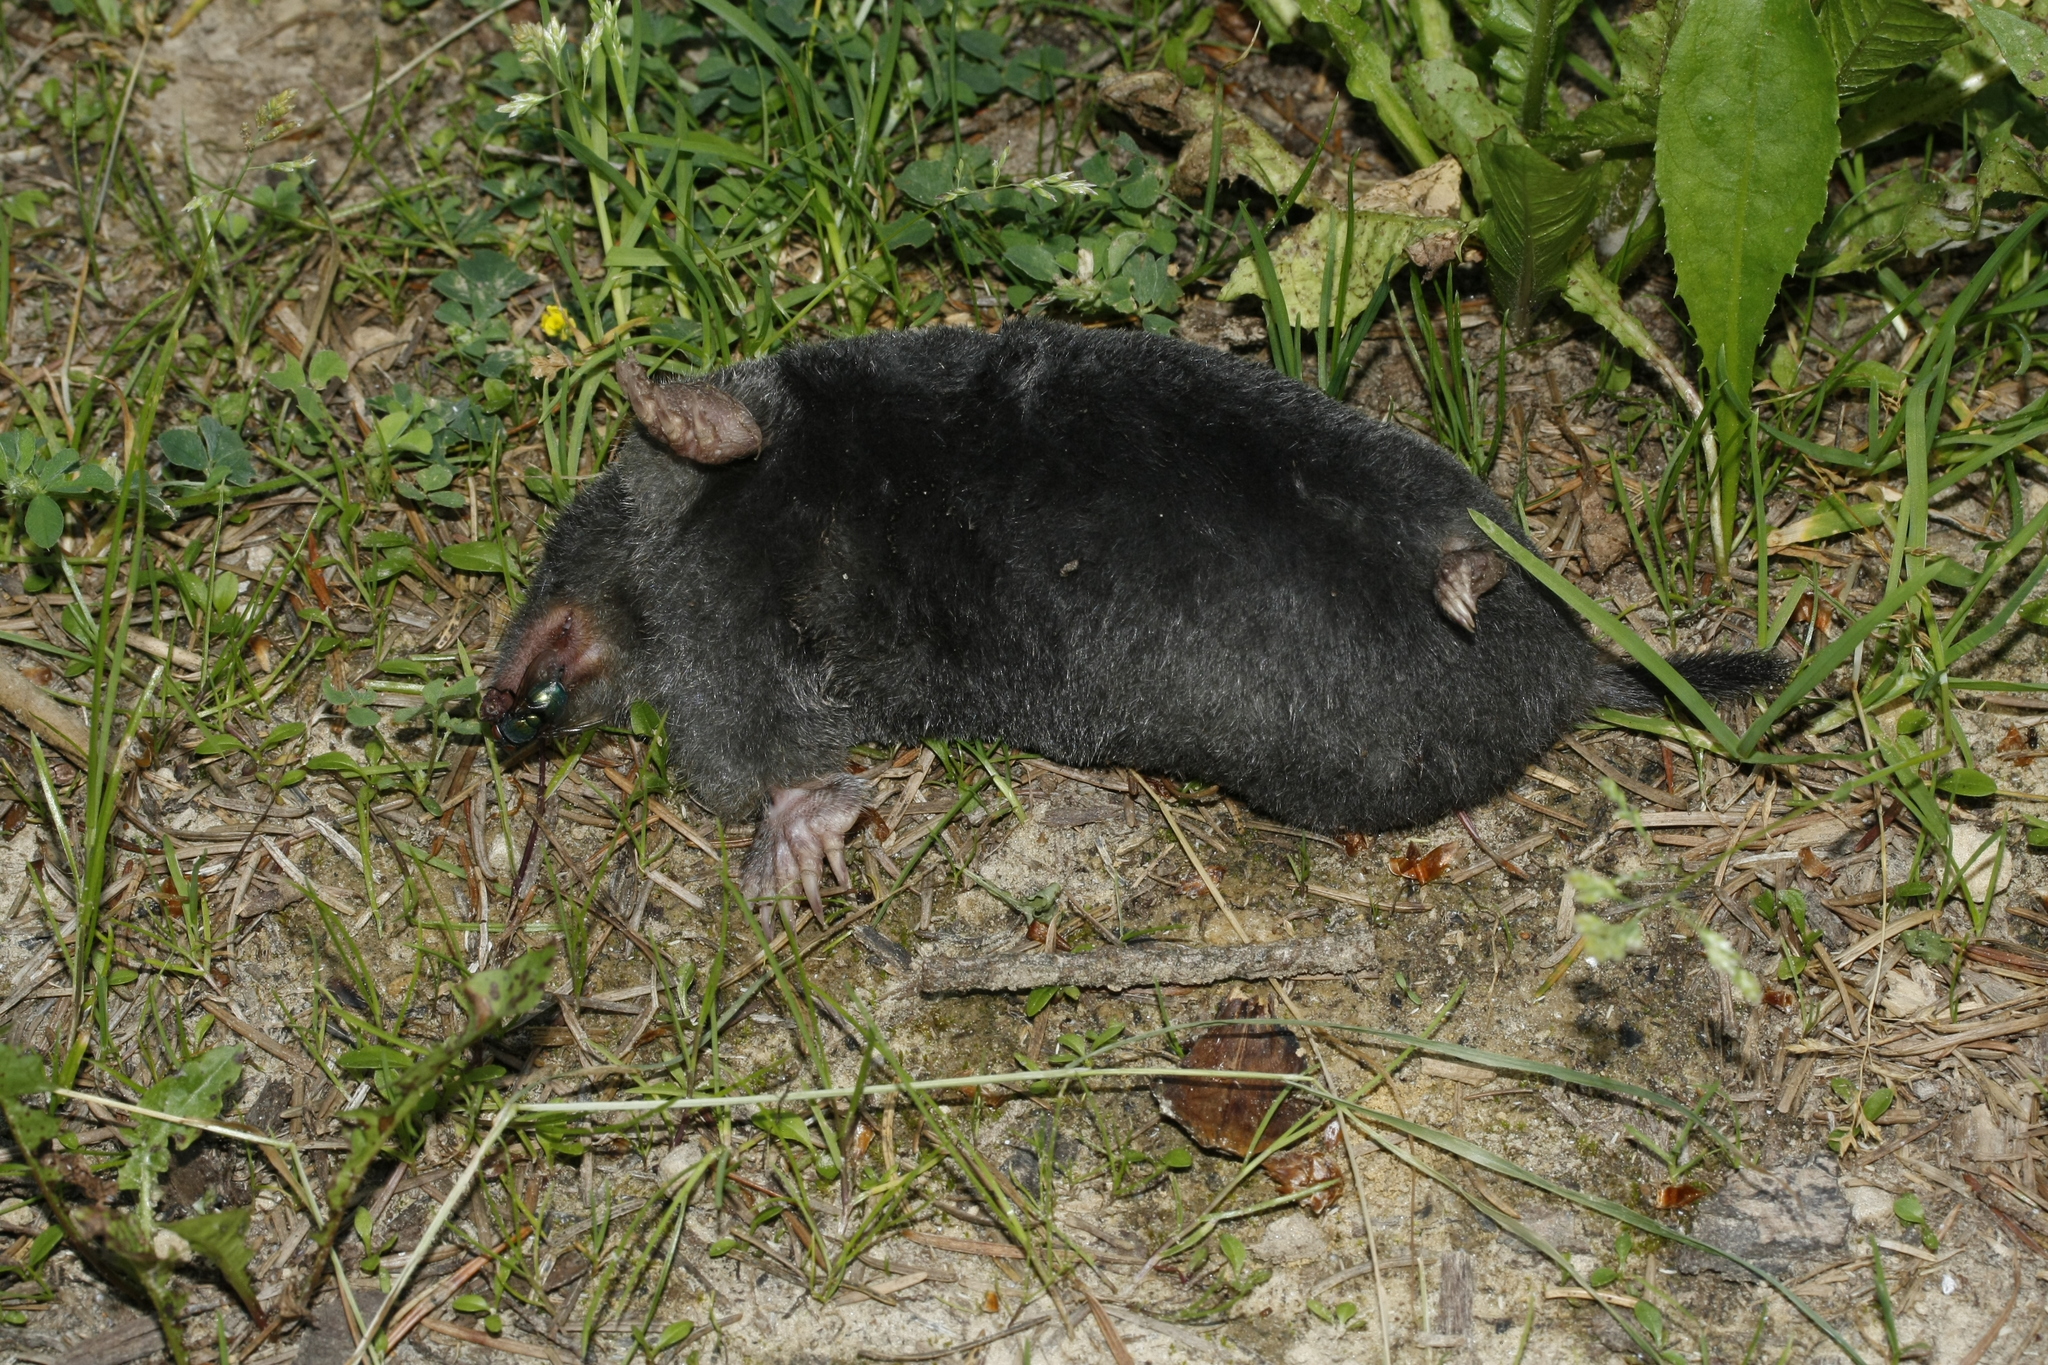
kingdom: Animalia
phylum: Chordata
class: Mammalia
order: Soricomorpha
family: Talpidae
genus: Talpa
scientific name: Talpa europaea
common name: European mole
